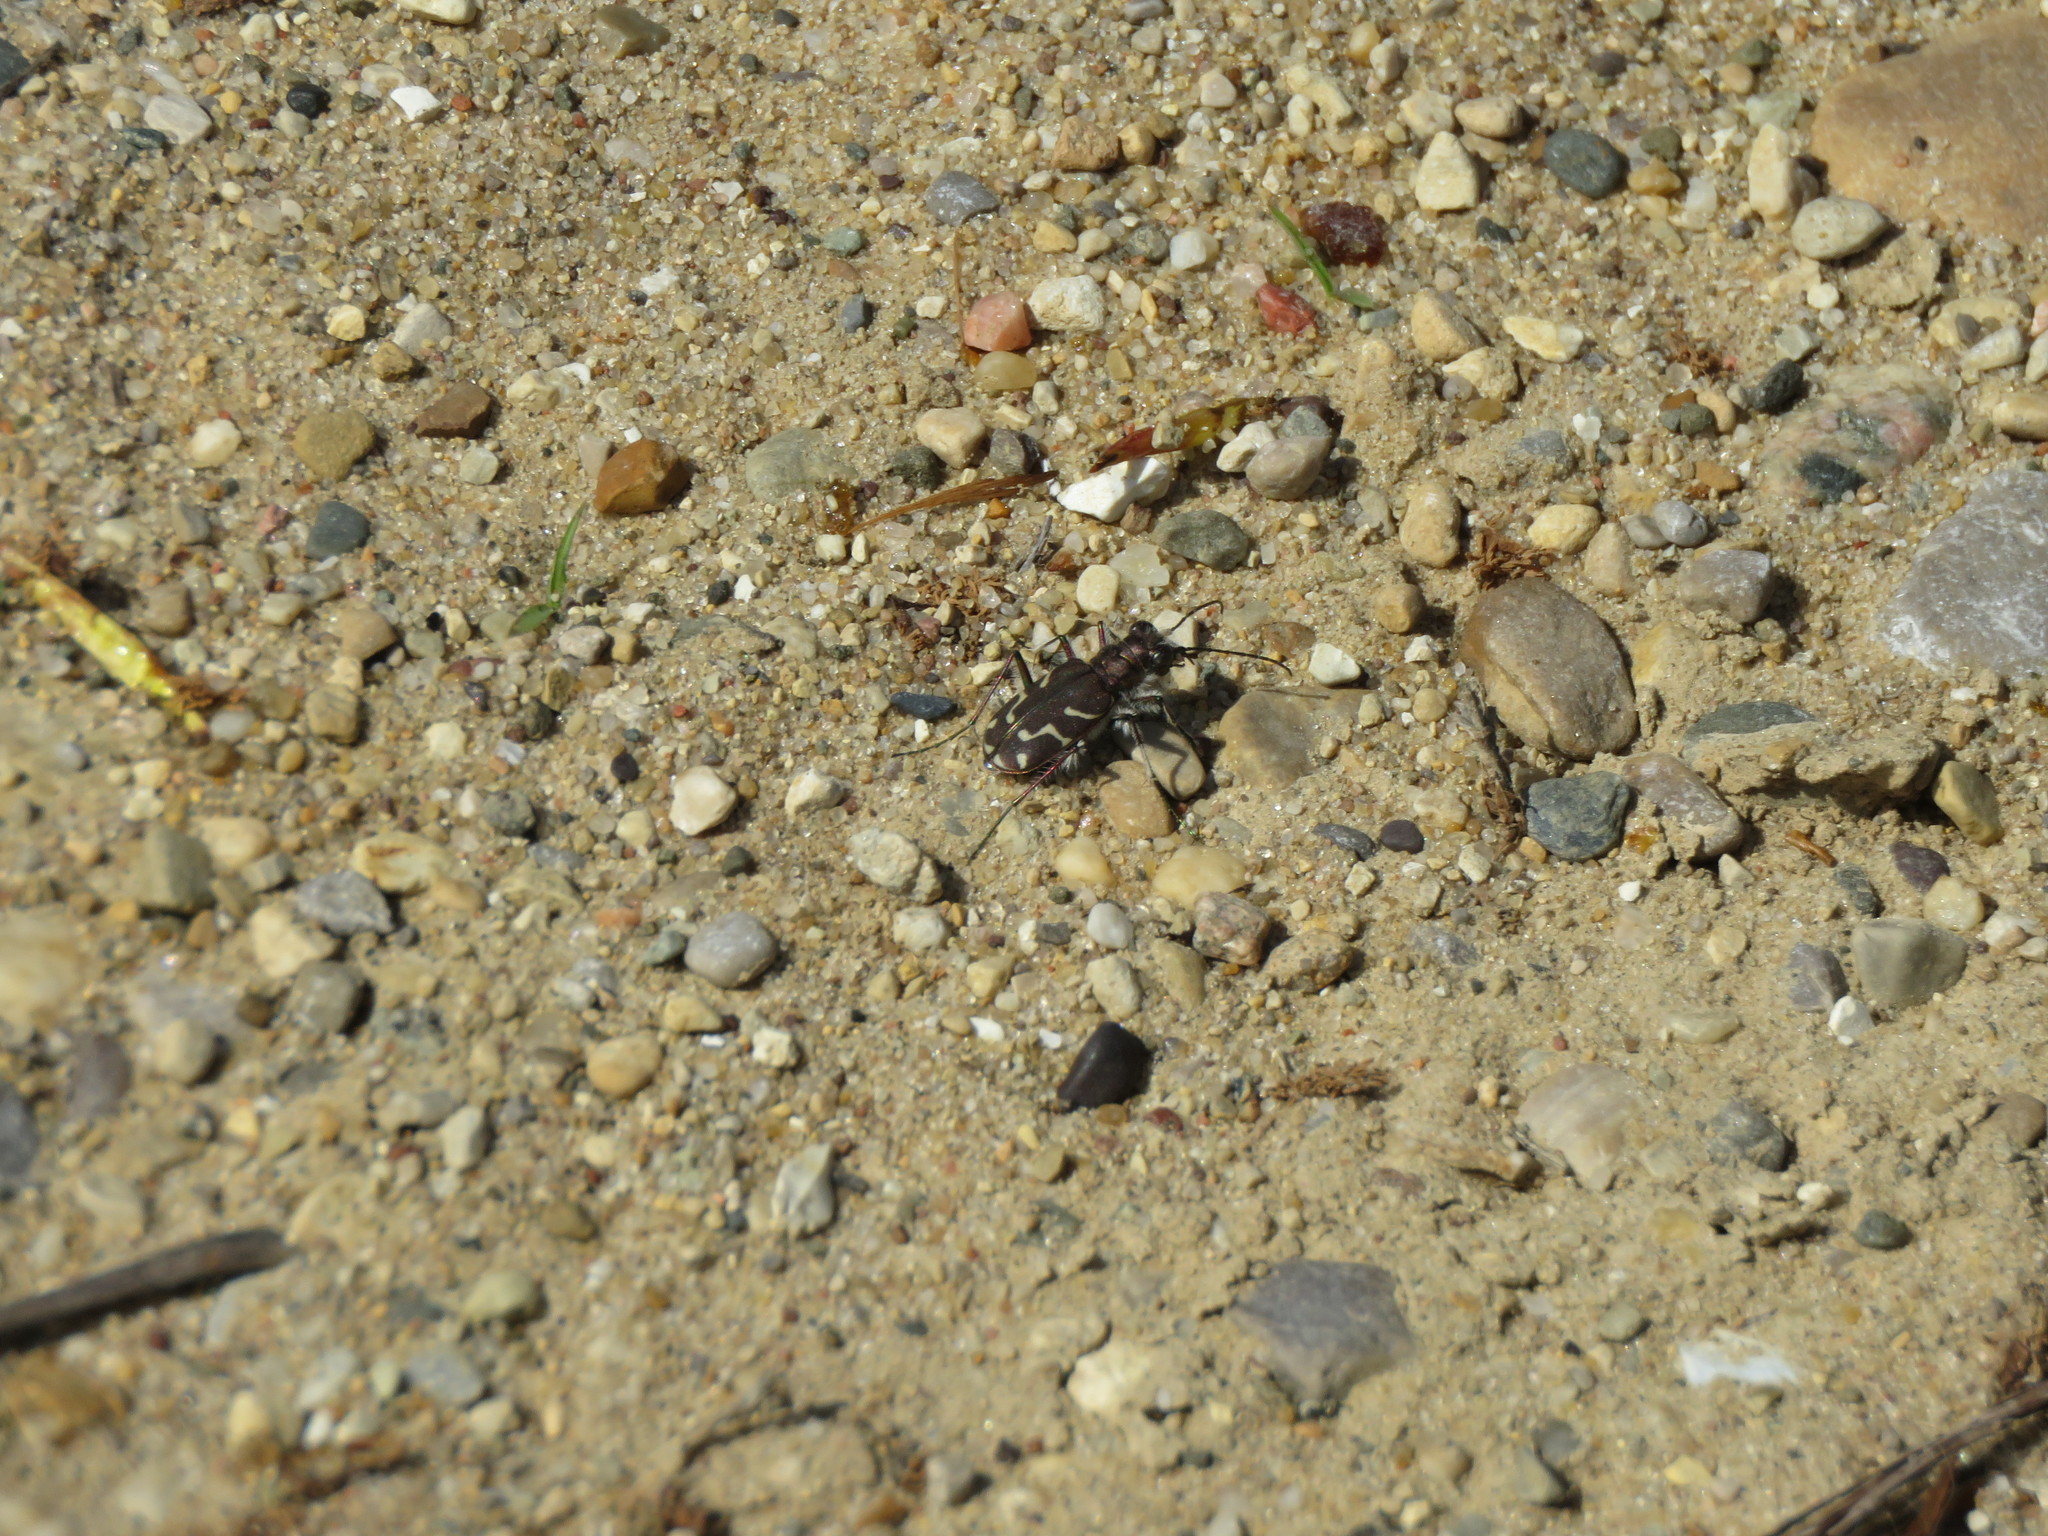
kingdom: Animalia
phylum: Arthropoda
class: Insecta
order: Coleoptera
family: Carabidae
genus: Cicindela
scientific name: Cicindela tranquebarica
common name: Oblique-lined tiger beetle
